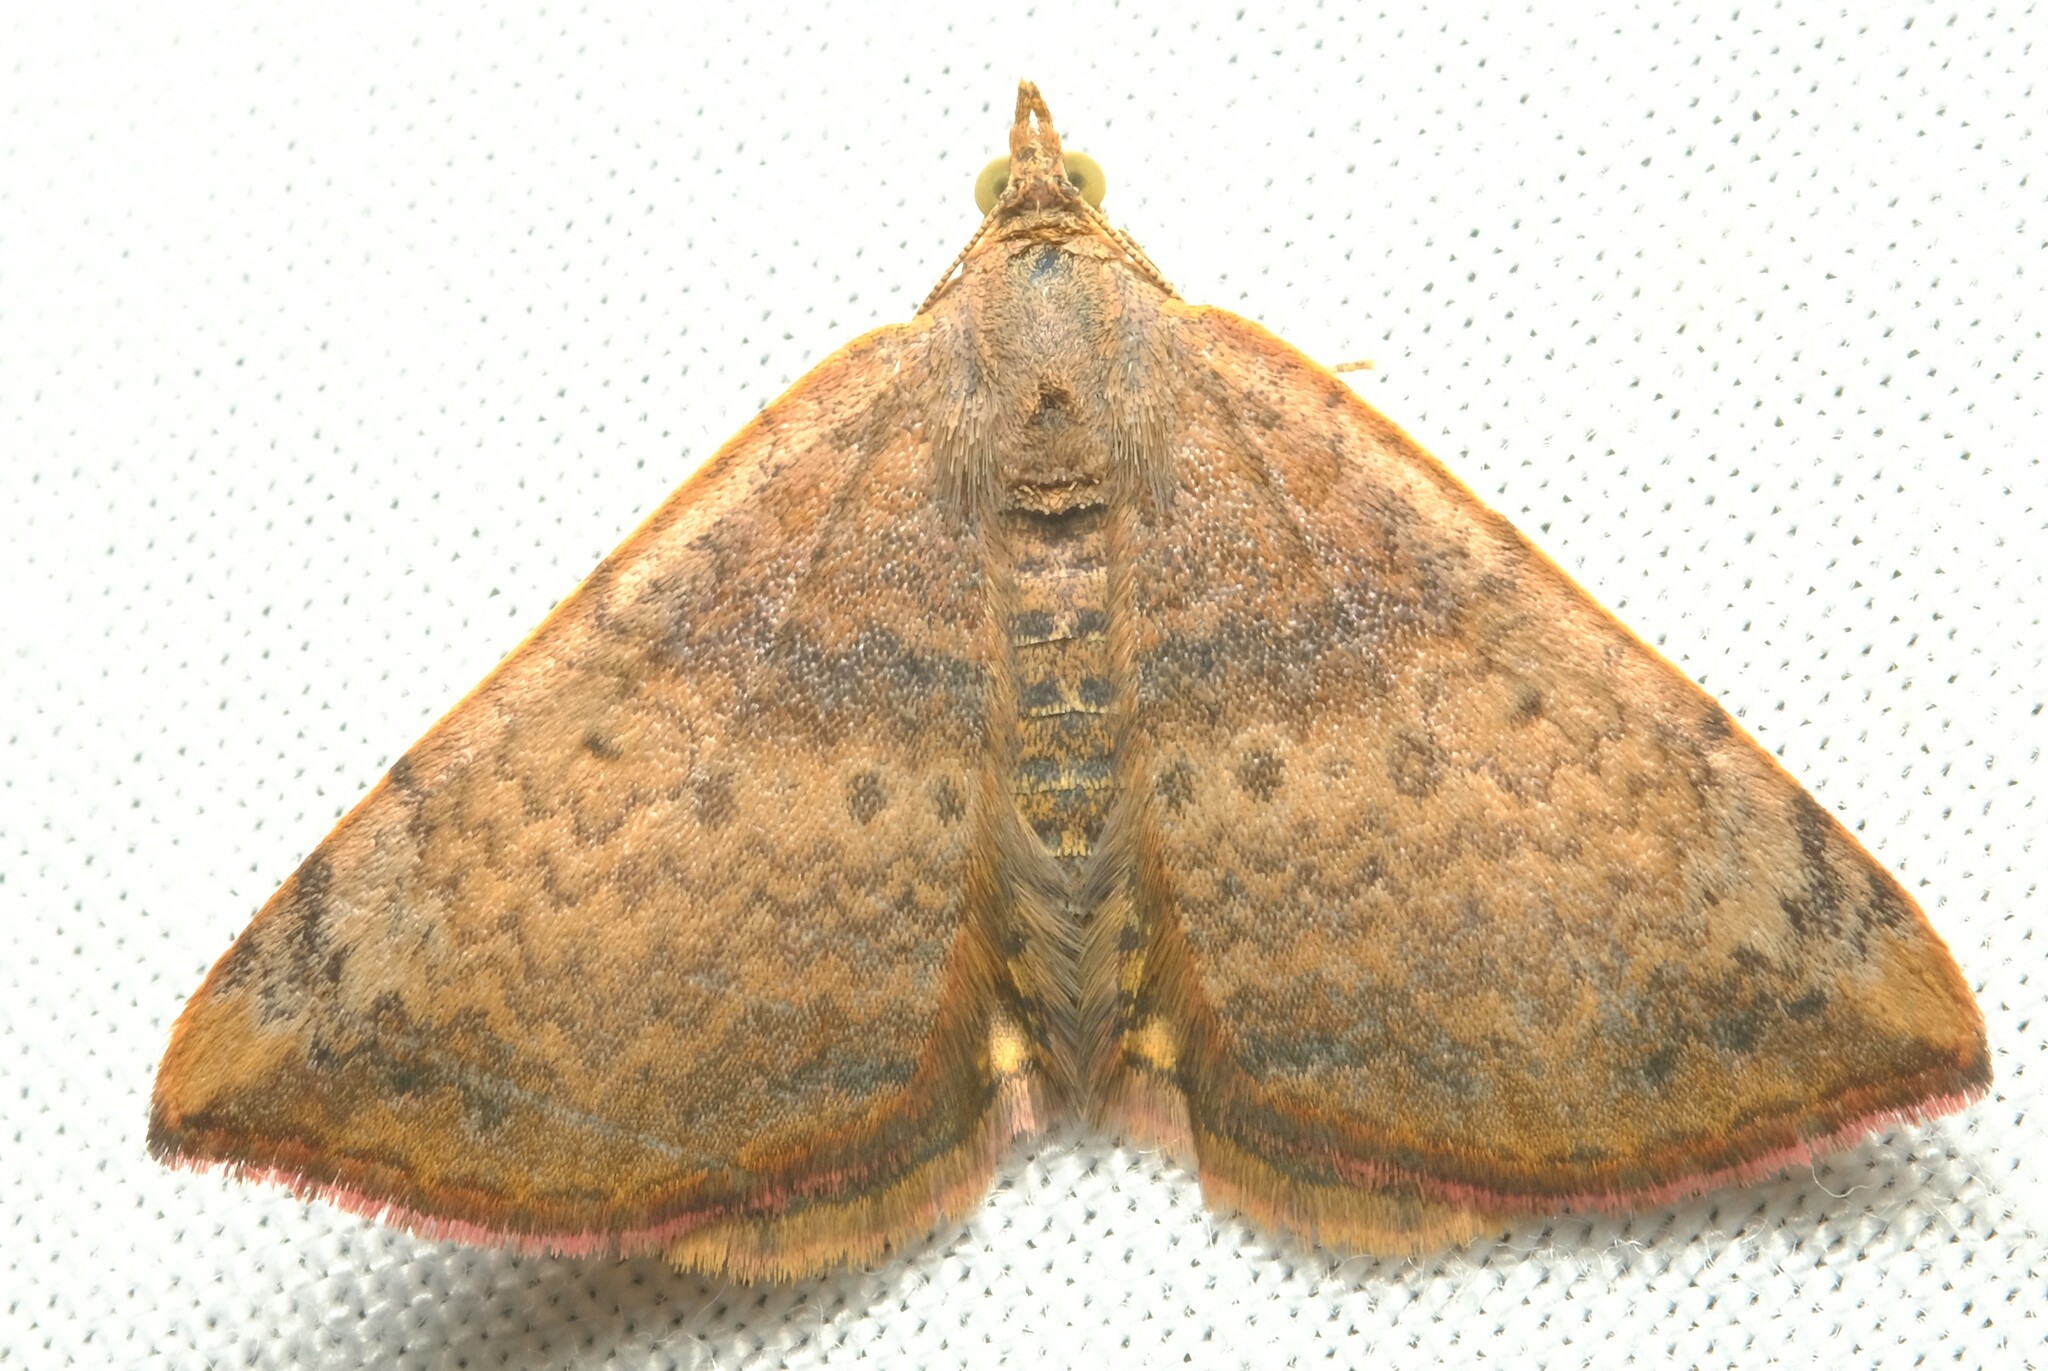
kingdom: Animalia
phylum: Arthropoda
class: Insecta
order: Lepidoptera
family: Geometridae
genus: Chrysolarentia
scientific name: Chrysolarentia mecynata
